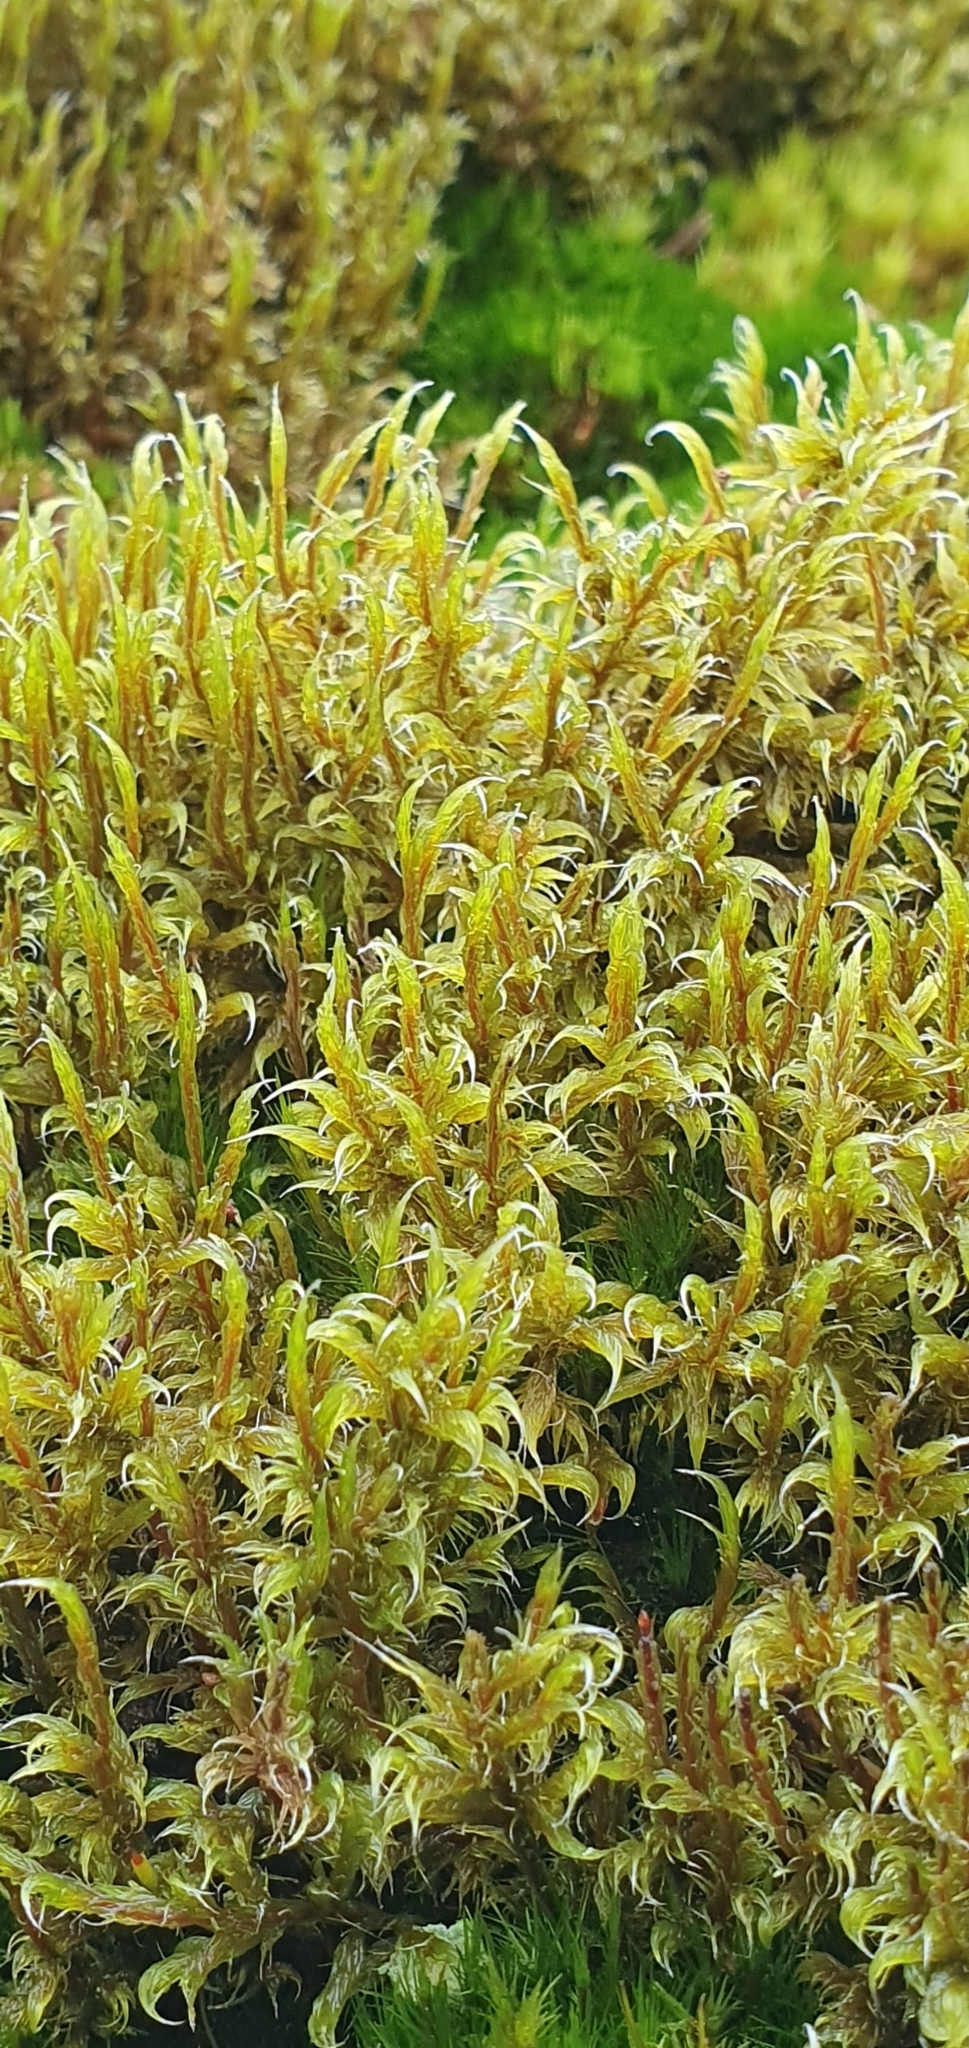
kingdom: Plantae
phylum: Bryophyta
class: Bryopsida
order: Grimmiales
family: Grimmiaceae
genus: Racomitrium
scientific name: Racomitrium lanuginosum
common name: Hoary rock moss
